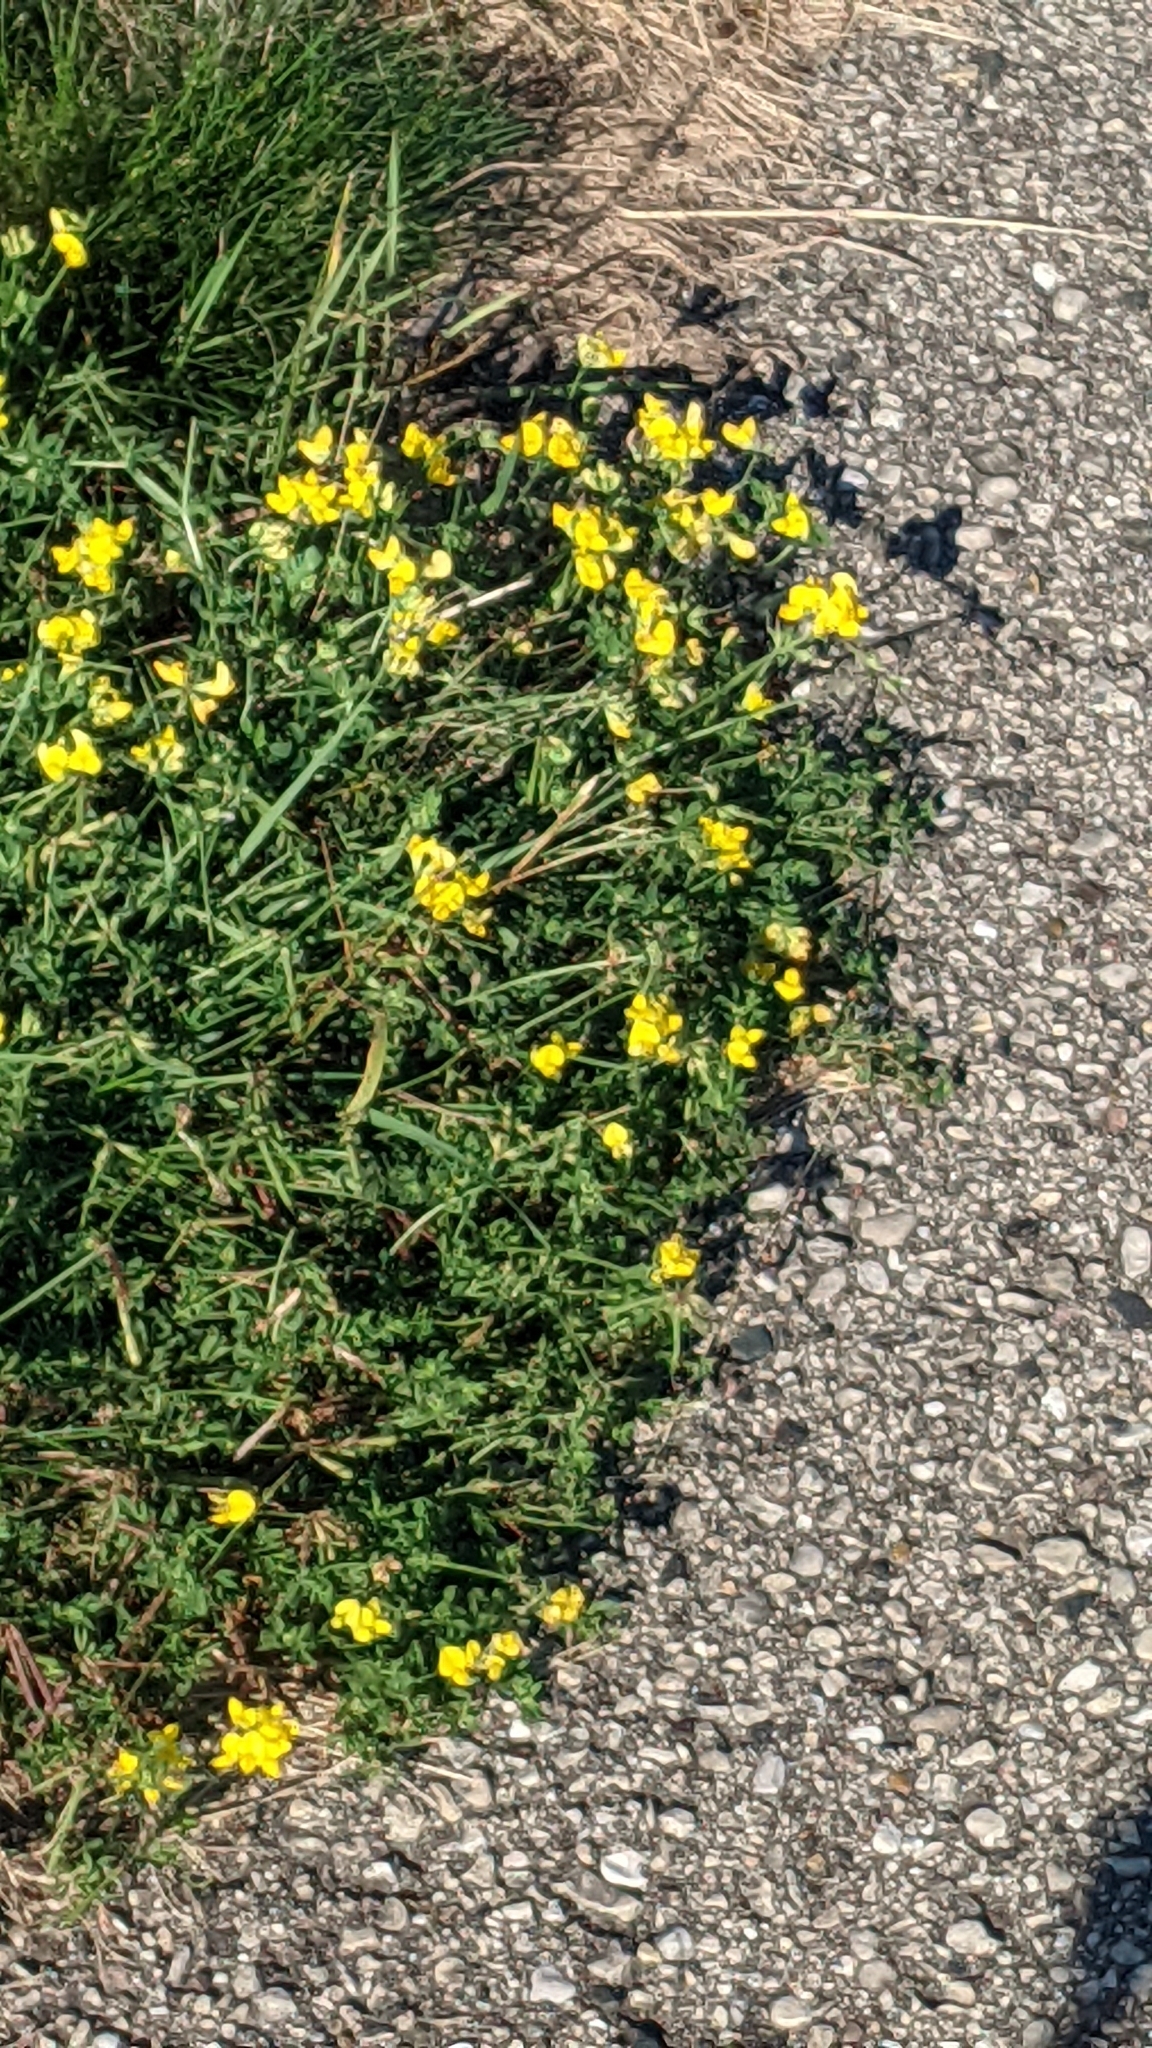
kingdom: Plantae
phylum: Tracheophyta
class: Magnoliopsida
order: Fabales
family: Fabaceae
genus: Lotus
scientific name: Lotus corniculatus
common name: Common bird's-foot-trefoil
